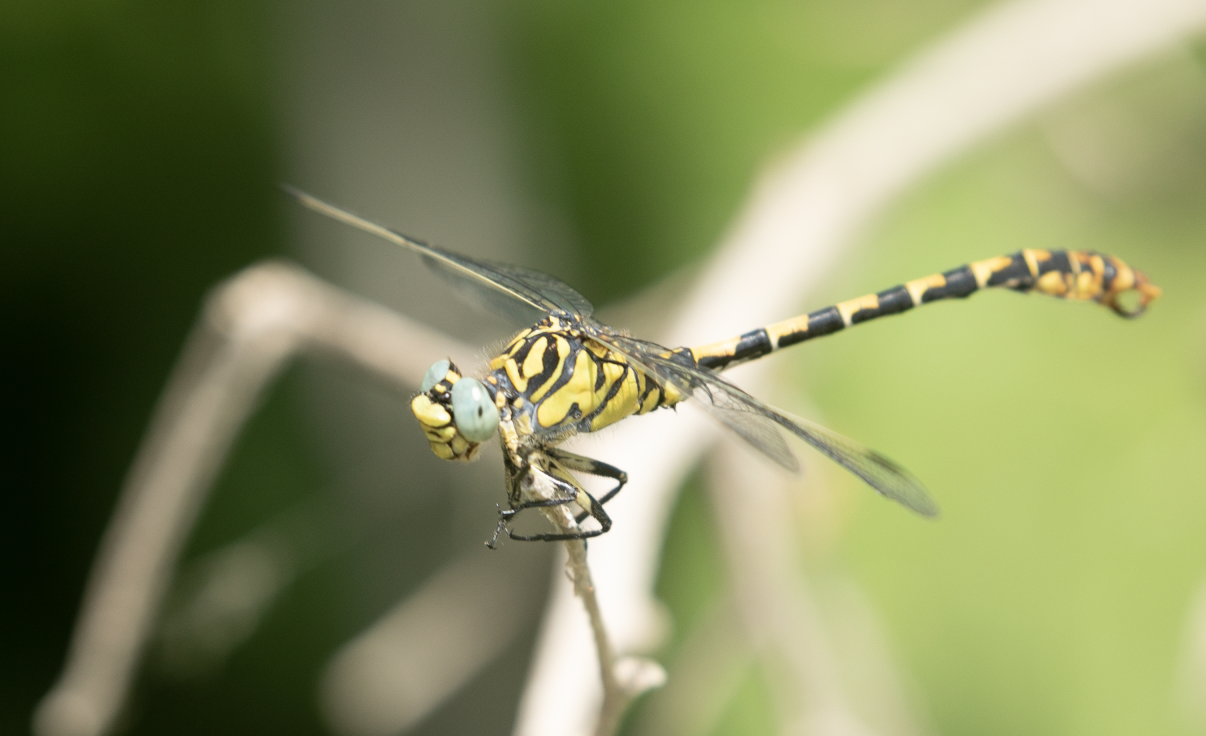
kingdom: Animalia
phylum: Arthropoda
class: Insecta
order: Odonata
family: Gomphidae
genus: Onychogomphus
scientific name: Onychogomphus forcipatus
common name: Small pincertail
